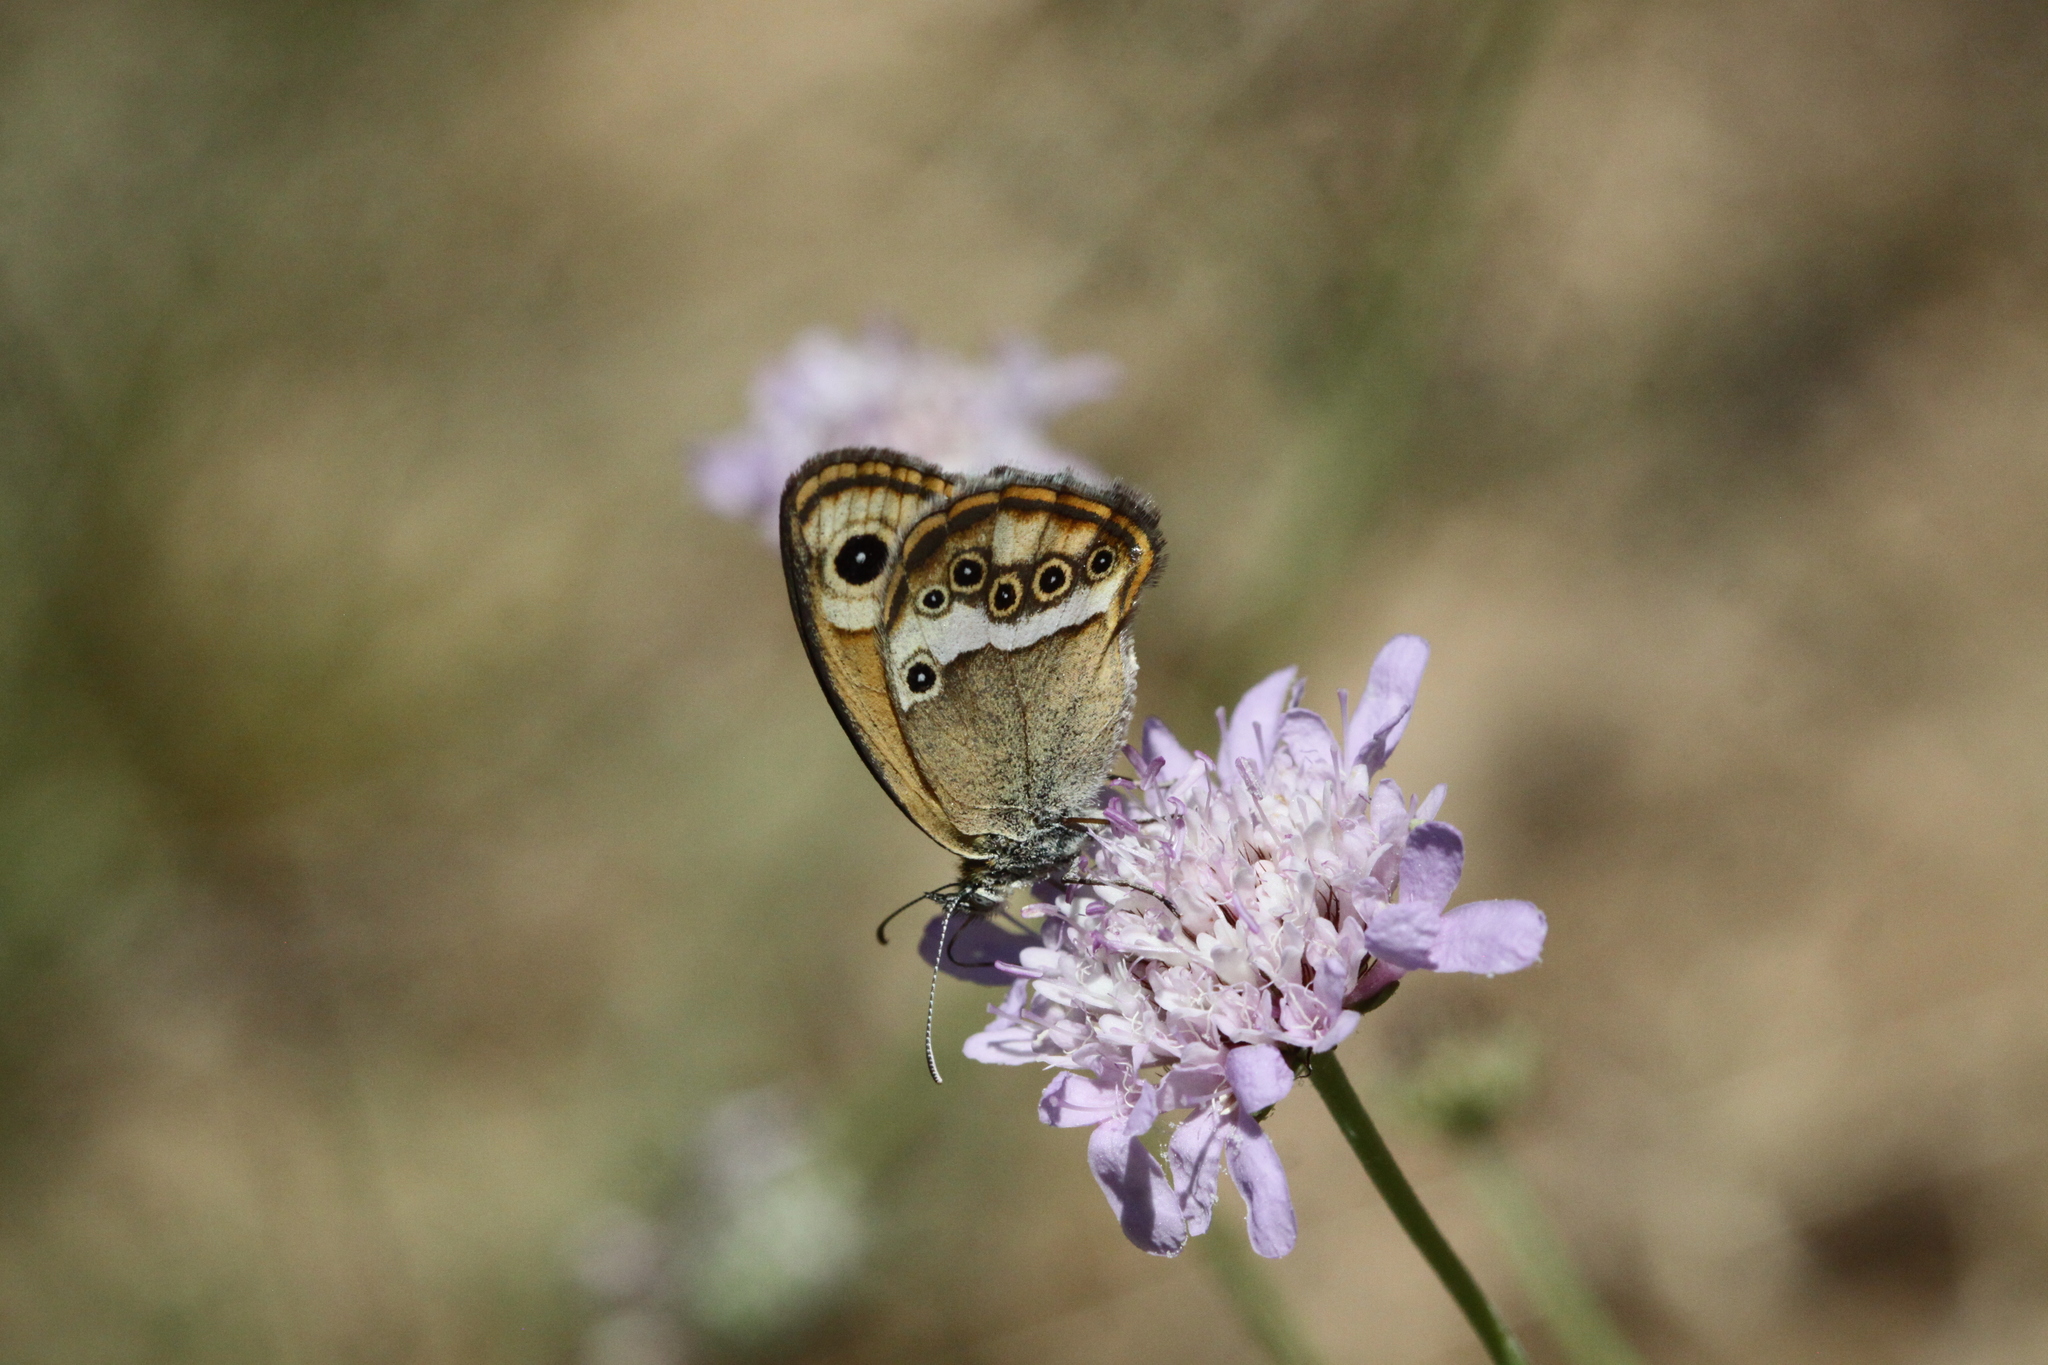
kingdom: Animalia
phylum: Arthropoda
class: Insecta
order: Lepidoptera
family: Nymphalidae
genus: Coenonympha
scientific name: Coenonympha dorus
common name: Dusky heath
